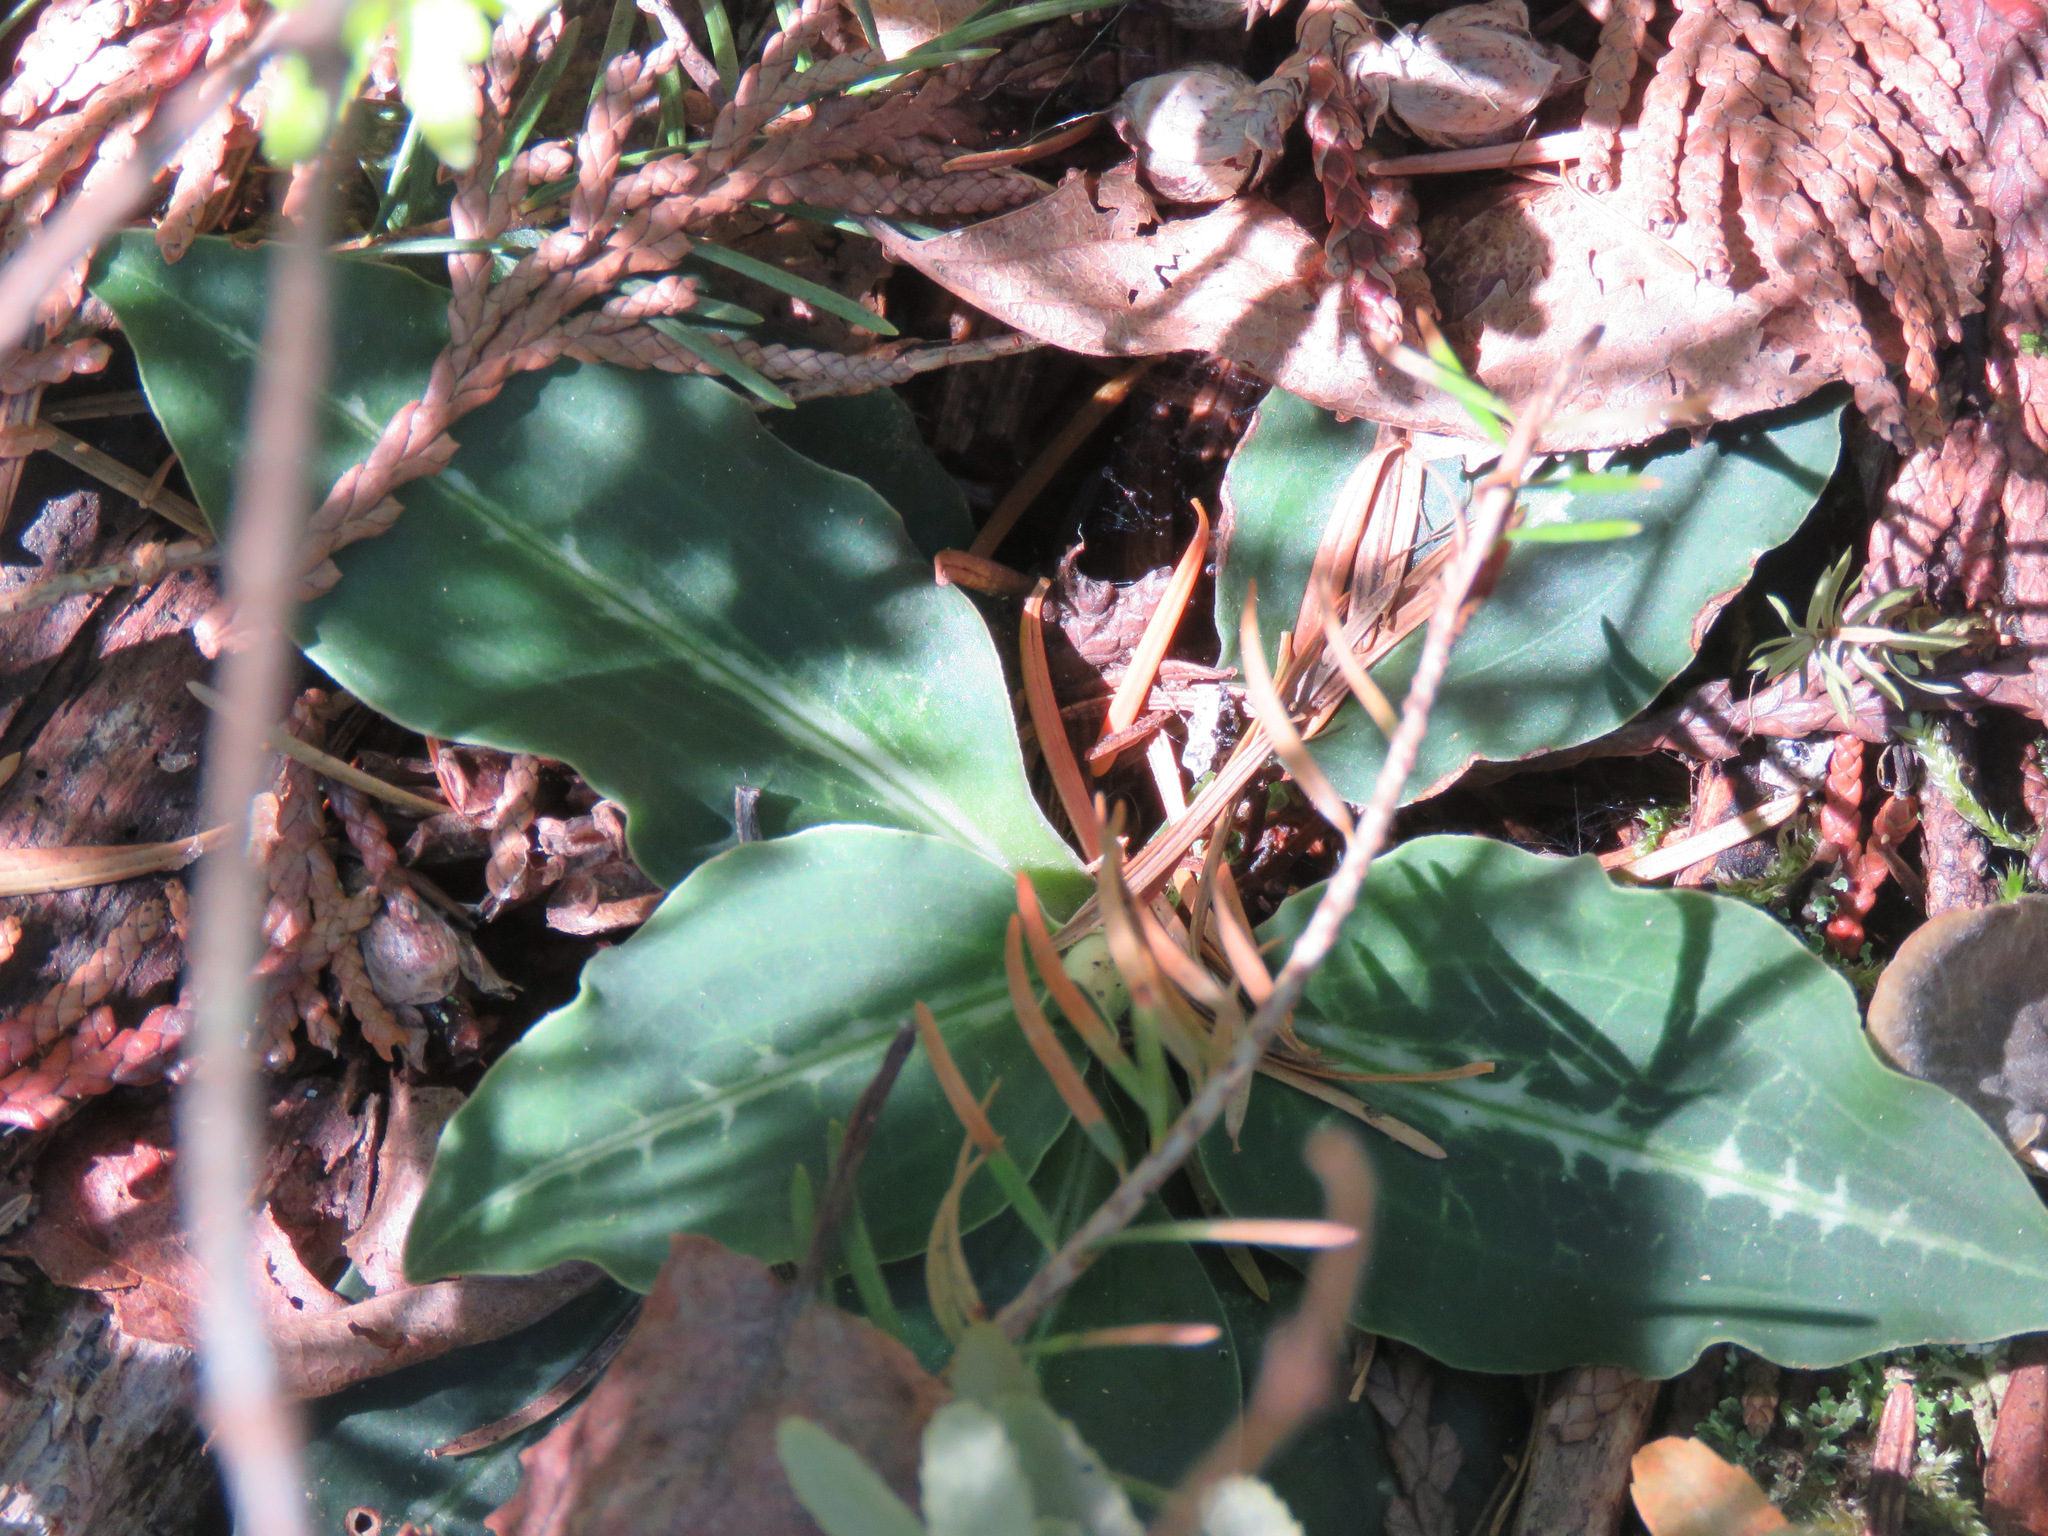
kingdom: Plantae
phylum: Tracheophyta
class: Liliopsida
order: Asparagales
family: Orchidaceae
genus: Goodyera
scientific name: Goodyera oblongifolia
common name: Giant rattlesnake-plantain
